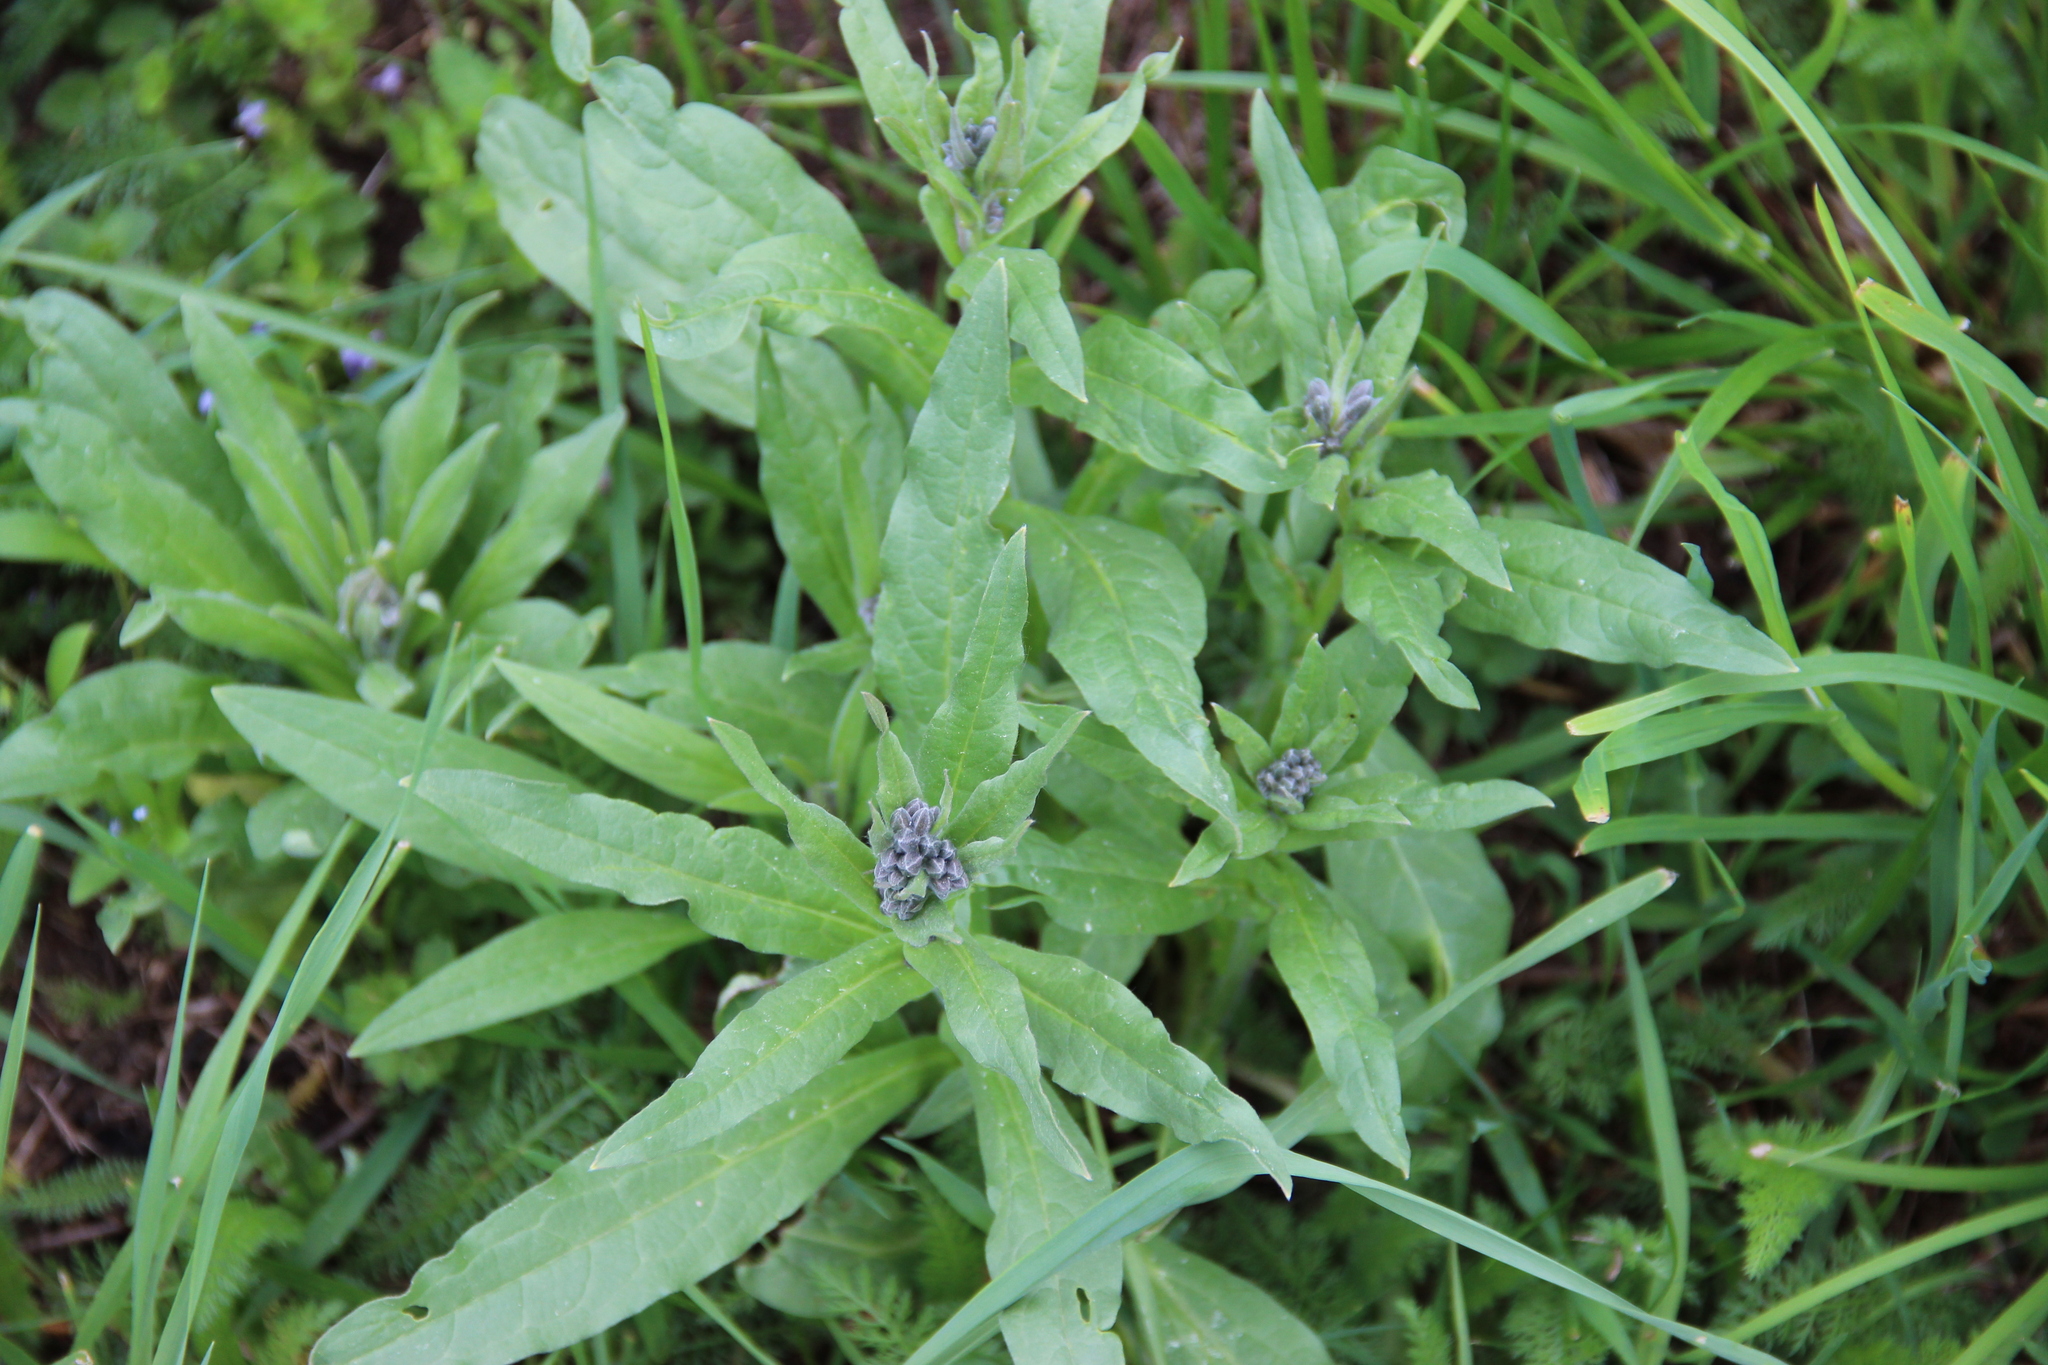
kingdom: Plantae
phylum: Tracheophyta
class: Magnoliopsida
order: Boraginales
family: Boraginaceae
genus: Cynoglossum
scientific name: Cynoglossum officinale
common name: Hound's-tongue
